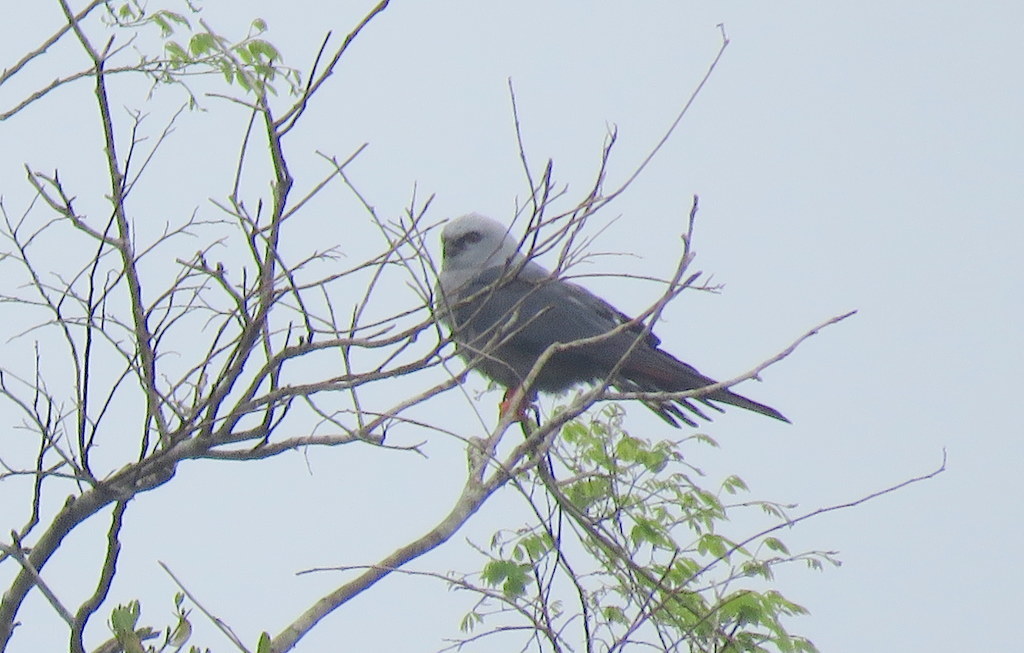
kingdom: Animalia
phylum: Chordata
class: Aves
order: Accipitriformes
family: Accipitridae
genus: Ictinia
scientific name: Ictinia plumbea
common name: Plumbeous kite
